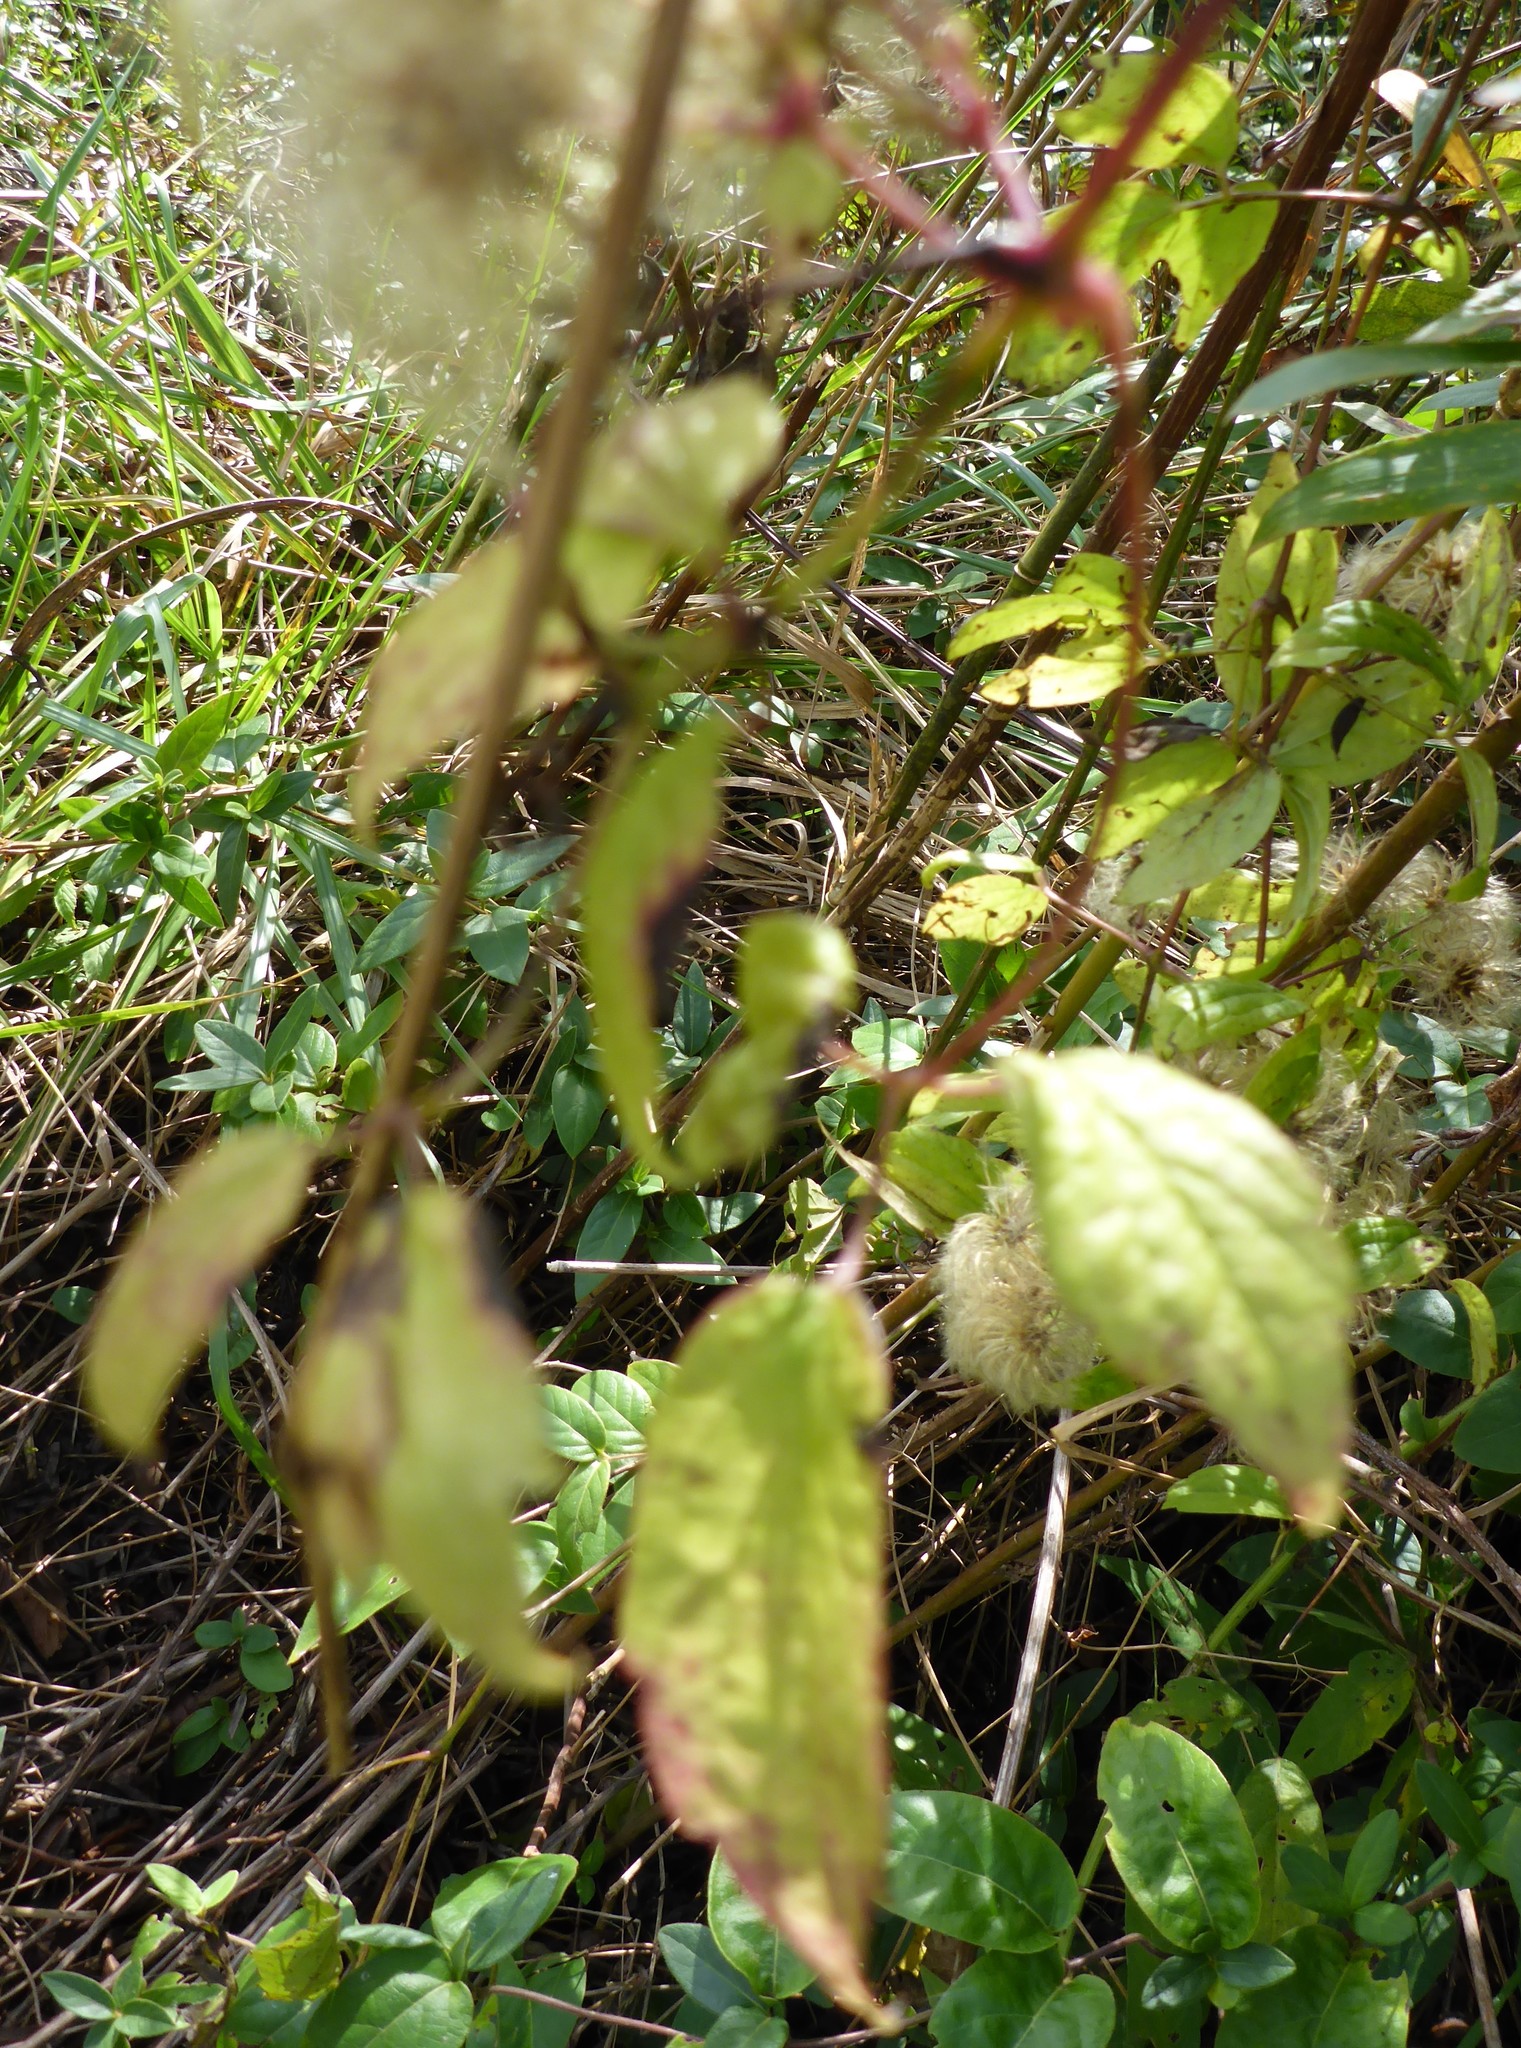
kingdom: Plantae
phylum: Tracheophyta
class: Magnoliopsida
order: Ranunculales
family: Ranunculaceae
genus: Clematis
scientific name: Clematis virginiana
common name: Virgin's-bower
